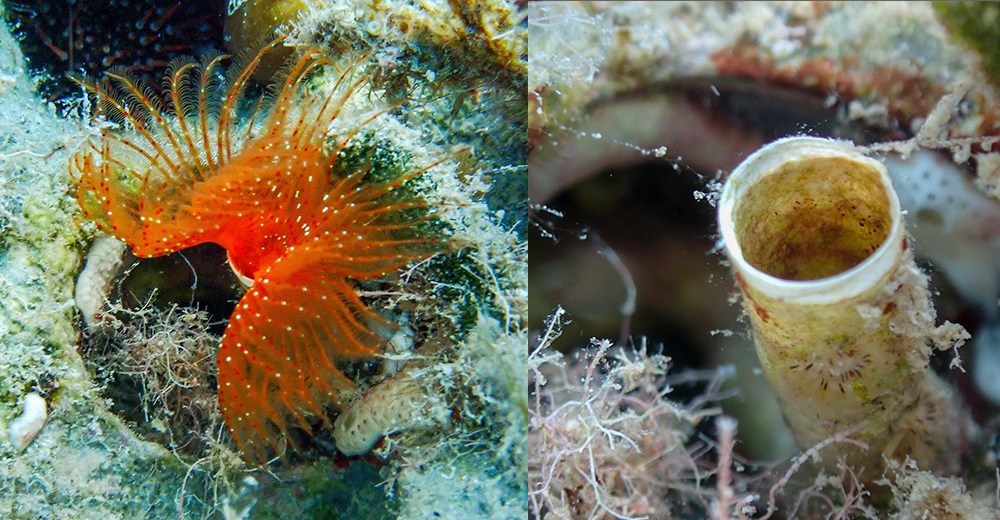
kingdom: Animalia
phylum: Annelida
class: Polychaeta
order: Sabellida
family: Serpulidae
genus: Protula
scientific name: Protula intestinum
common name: Blood-red tubeworm
